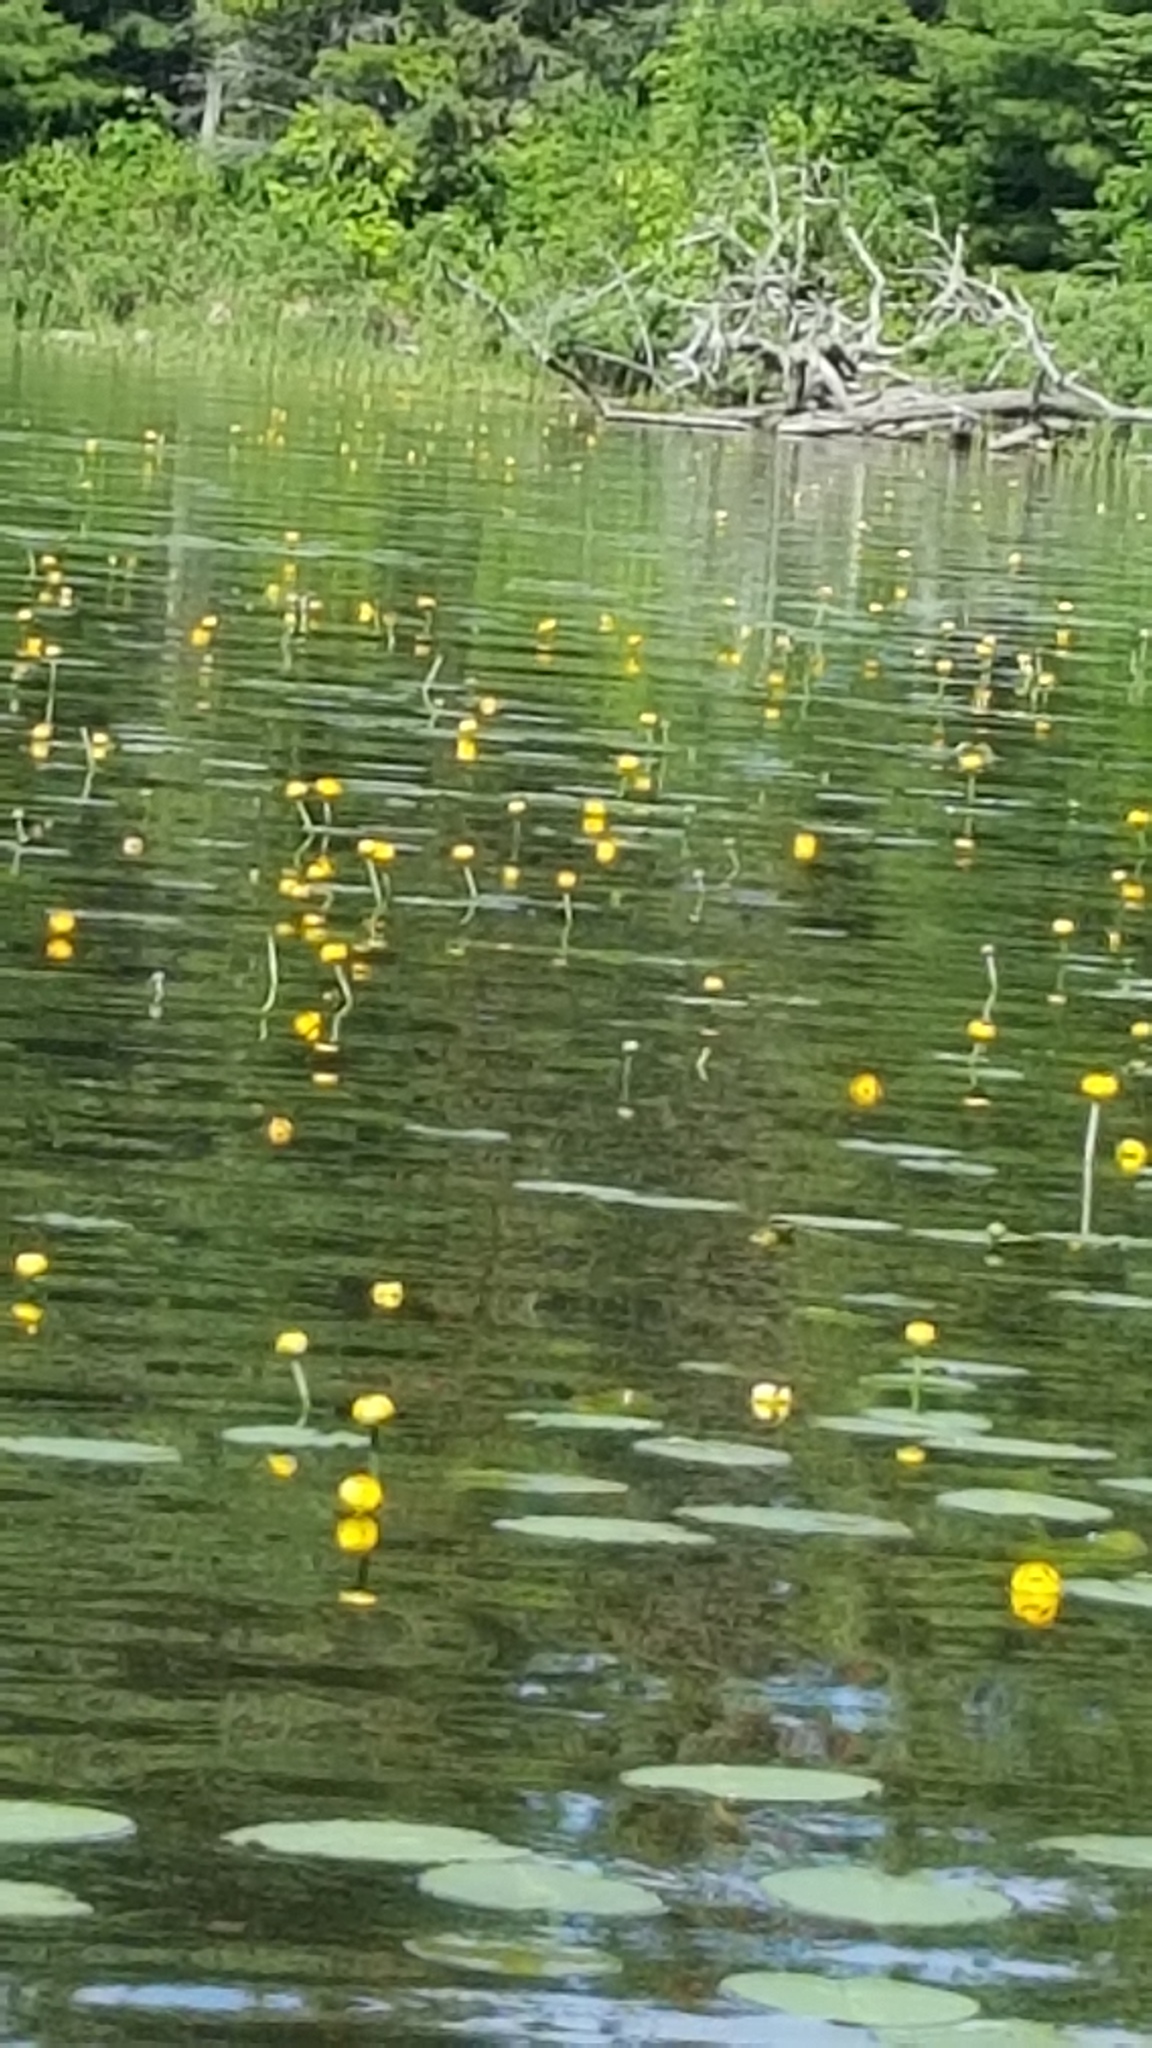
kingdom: Plantae
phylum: Tracheophyta
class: Magnoliopsida
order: Nymphaeales
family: Nymphaeaceae
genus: Nuphar
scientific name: Nuphar variegata
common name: Beaver-root
